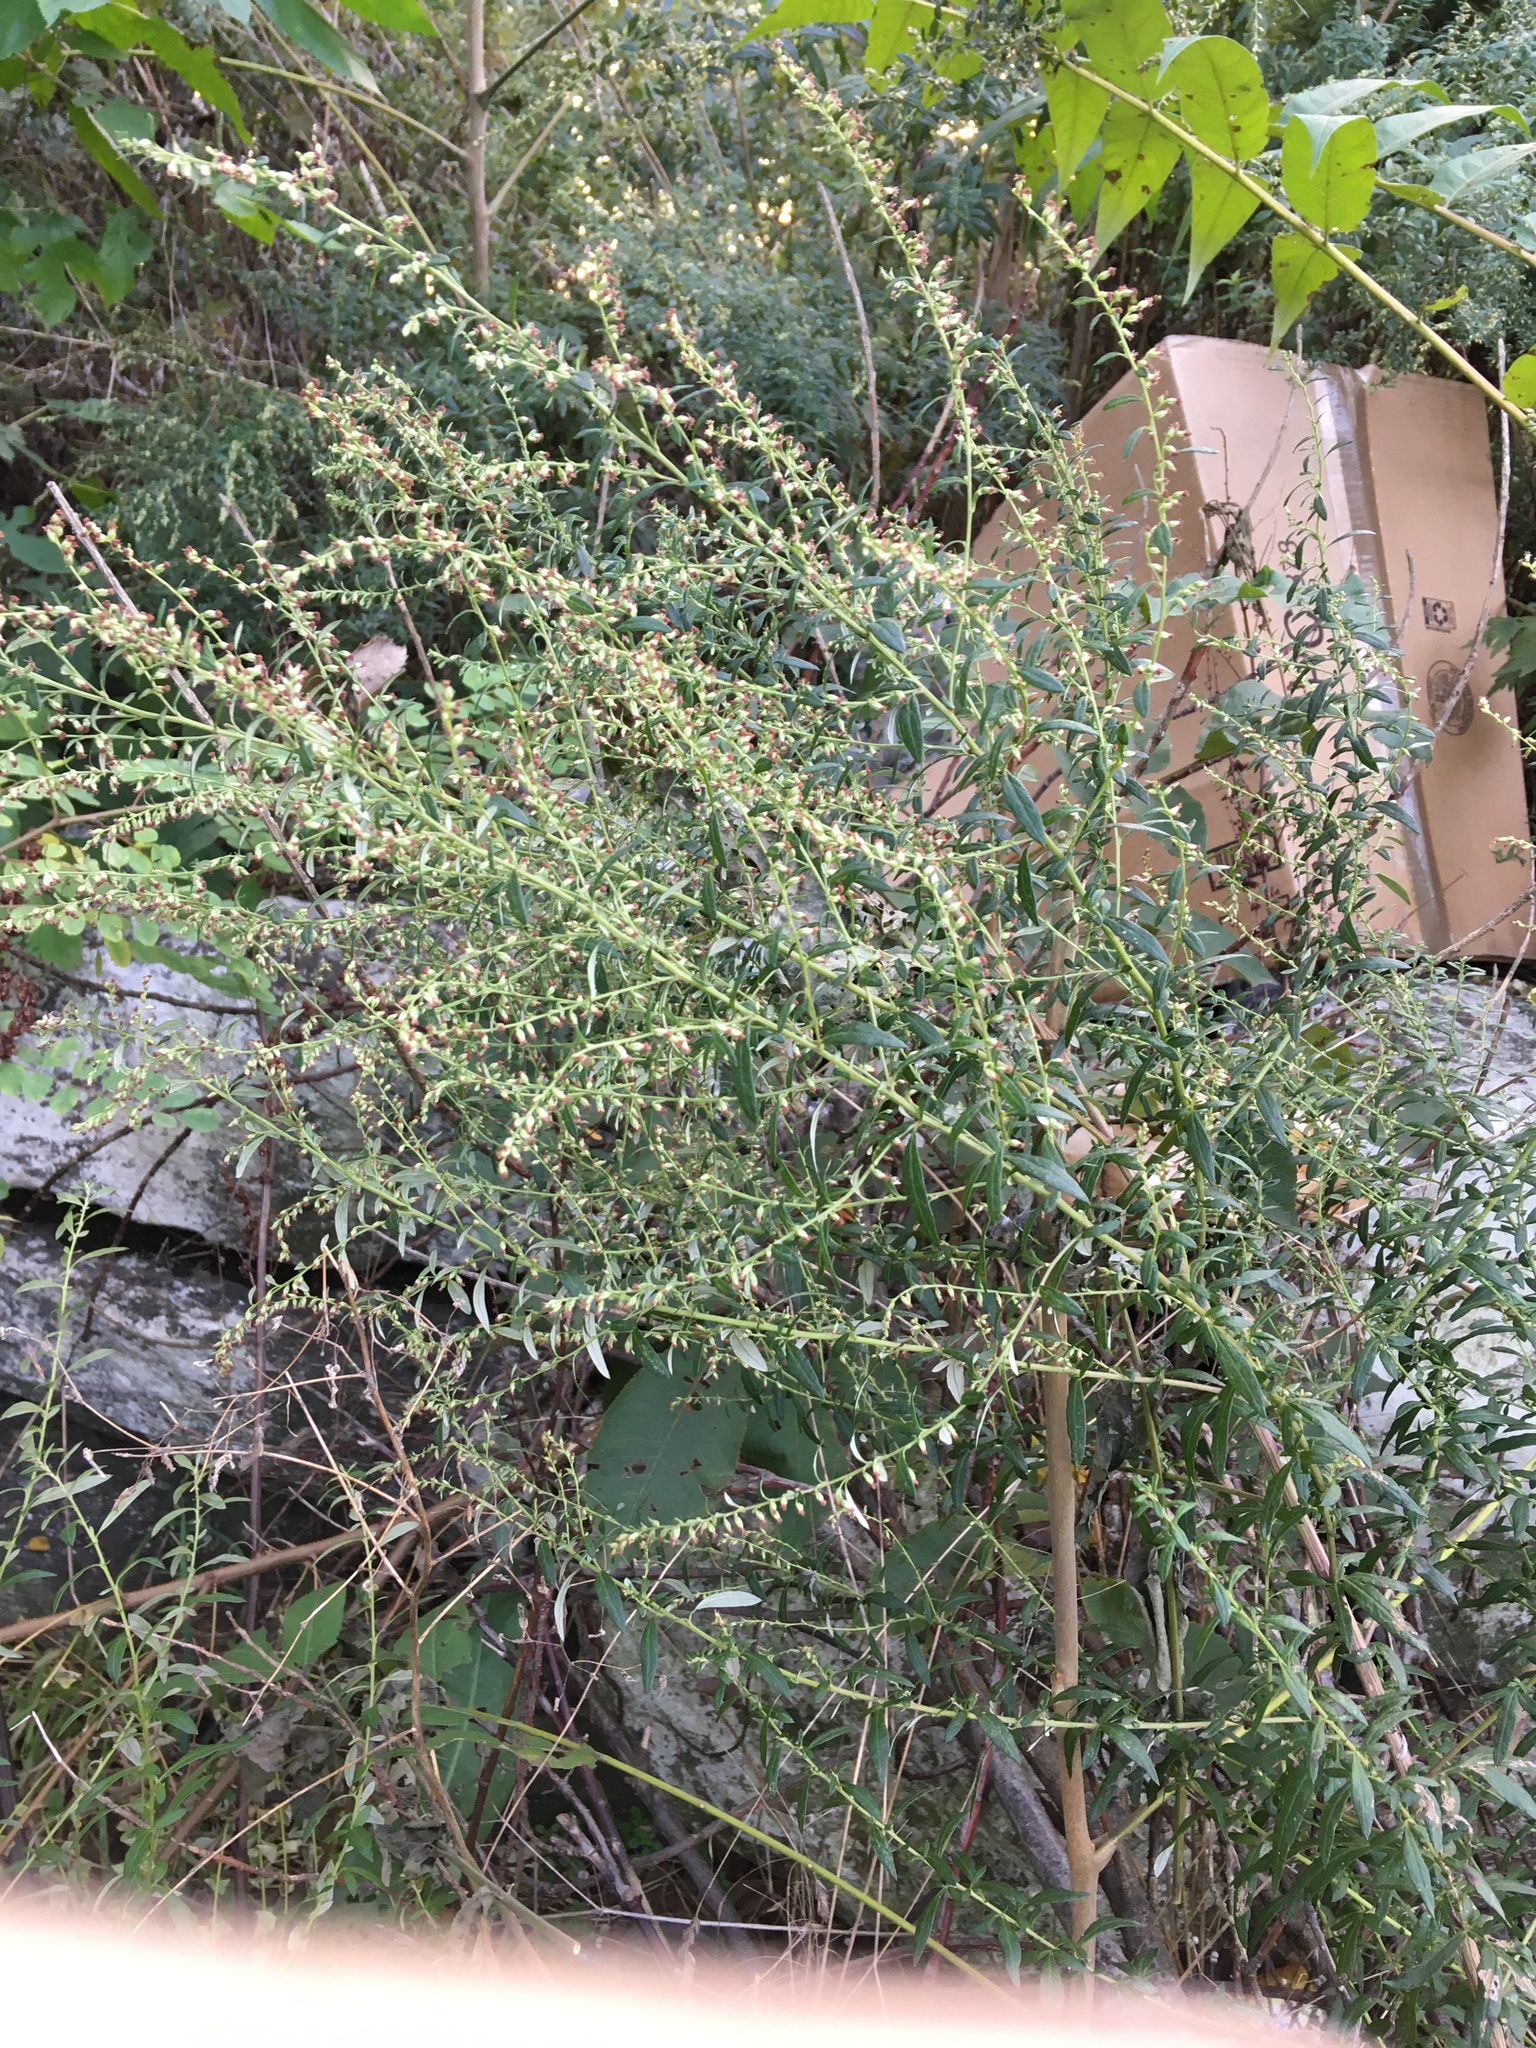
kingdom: Plantae
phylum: Tracheophyta
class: Magnoliopsida
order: Asterales
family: Asteraceae
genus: Artemisia
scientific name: Artemisia vulgaris
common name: Mugwort
